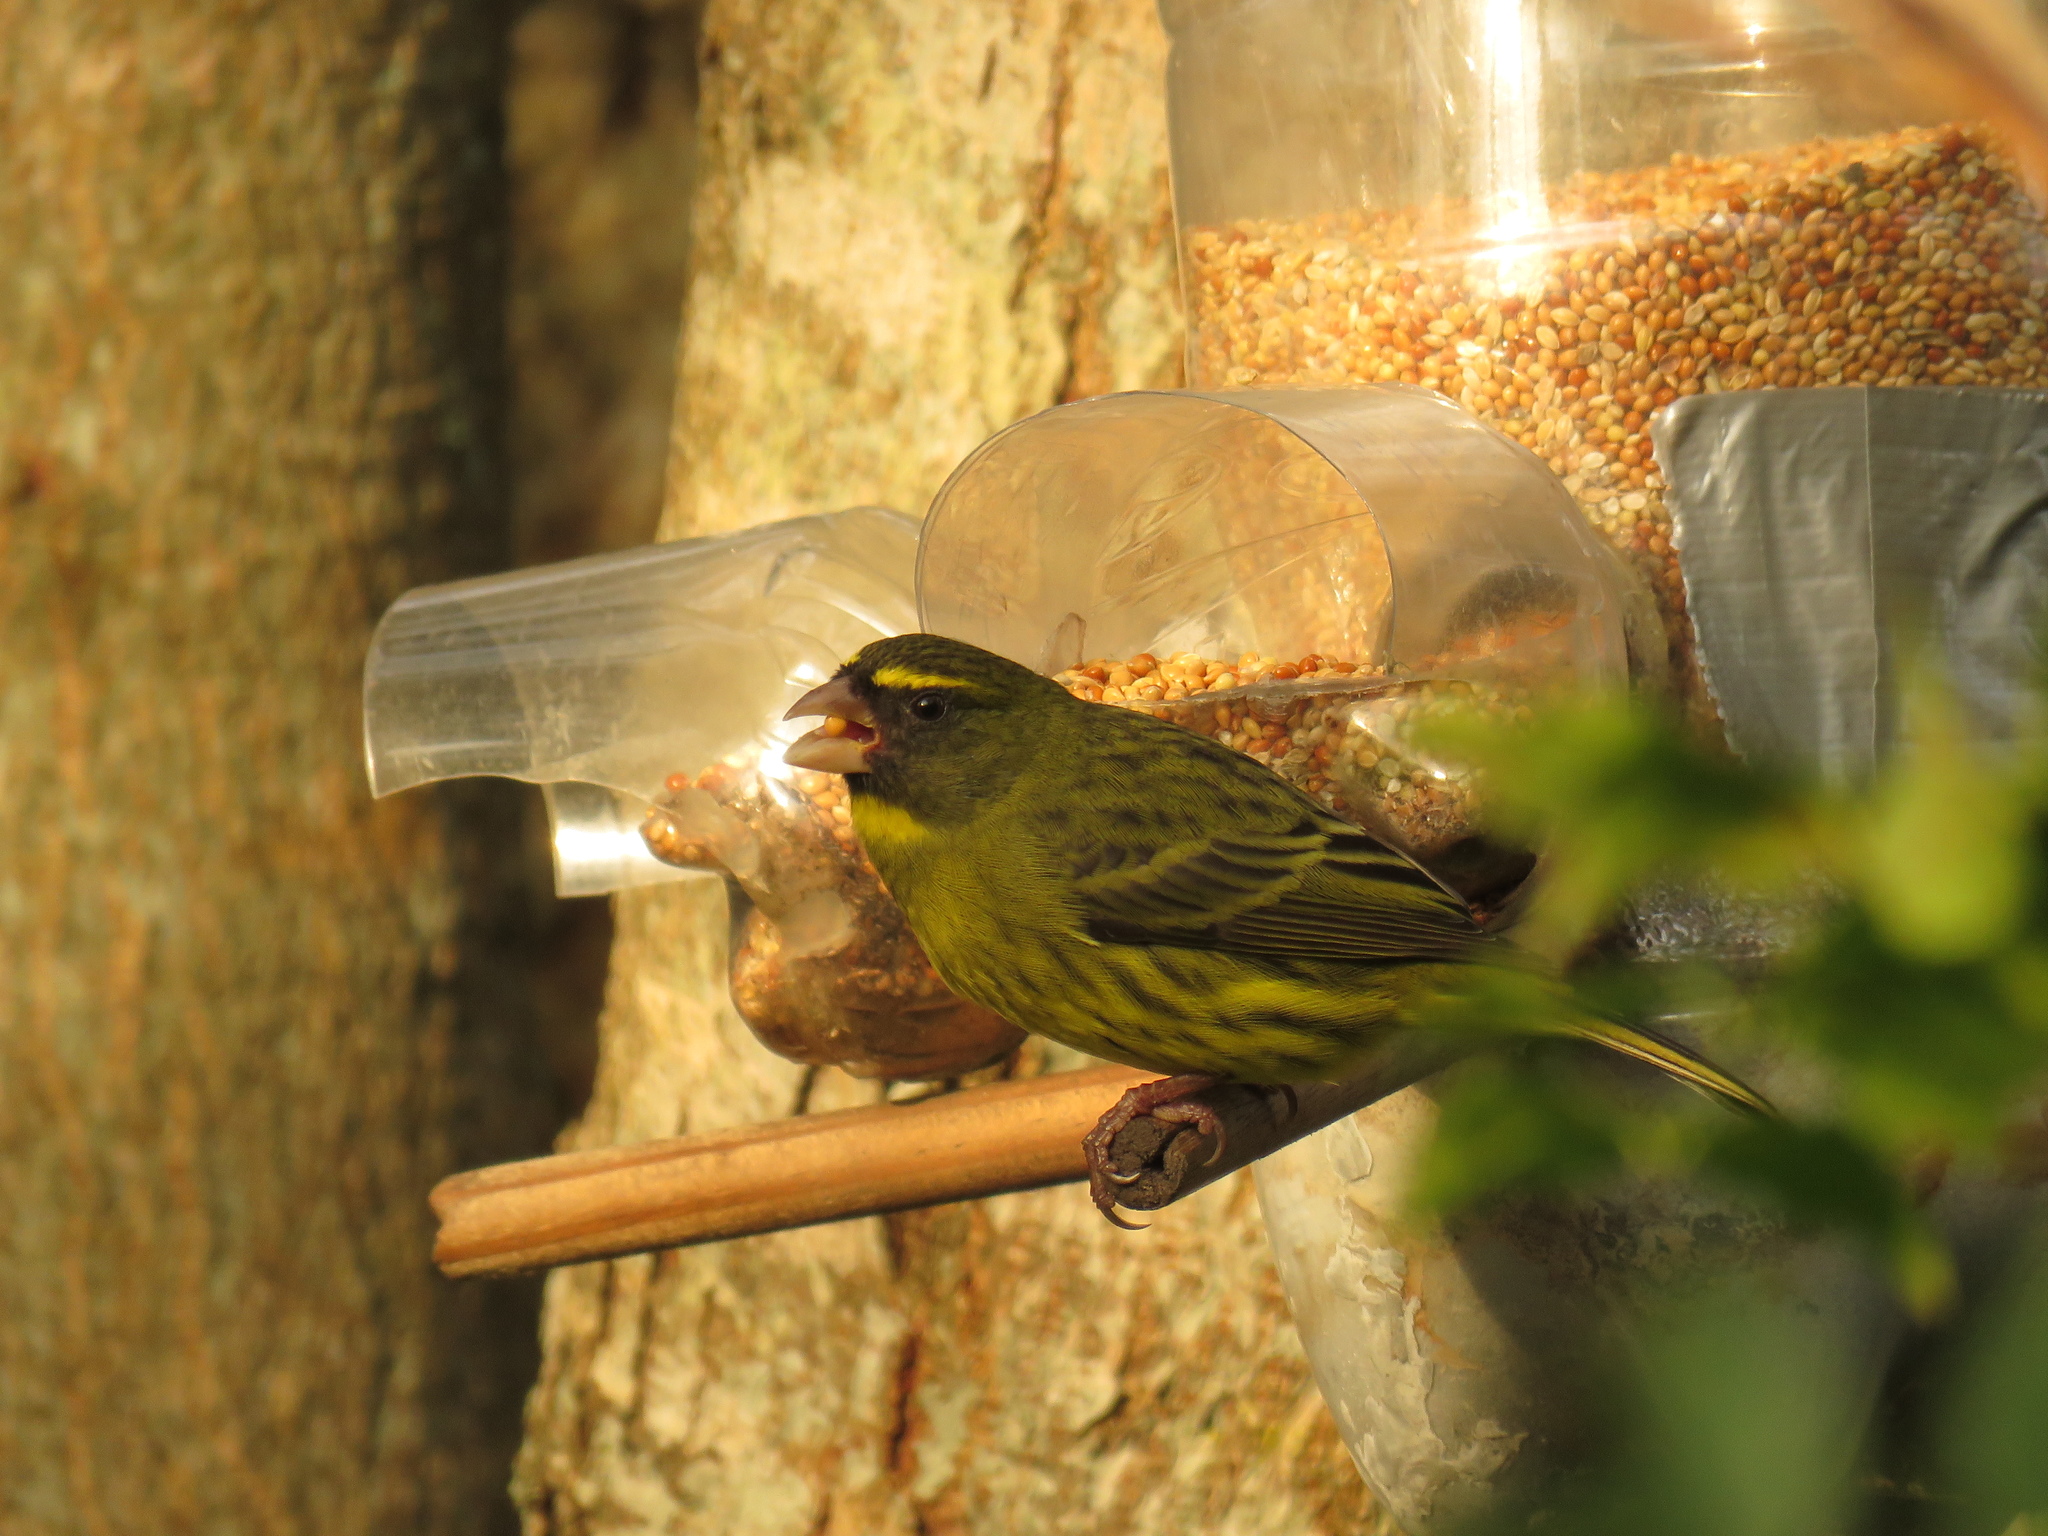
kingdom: Animalia
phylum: Chordata
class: Aves
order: Passeriformes
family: Fringillidae
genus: Crithagra
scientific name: Crithagra scotops
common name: Forest canary
